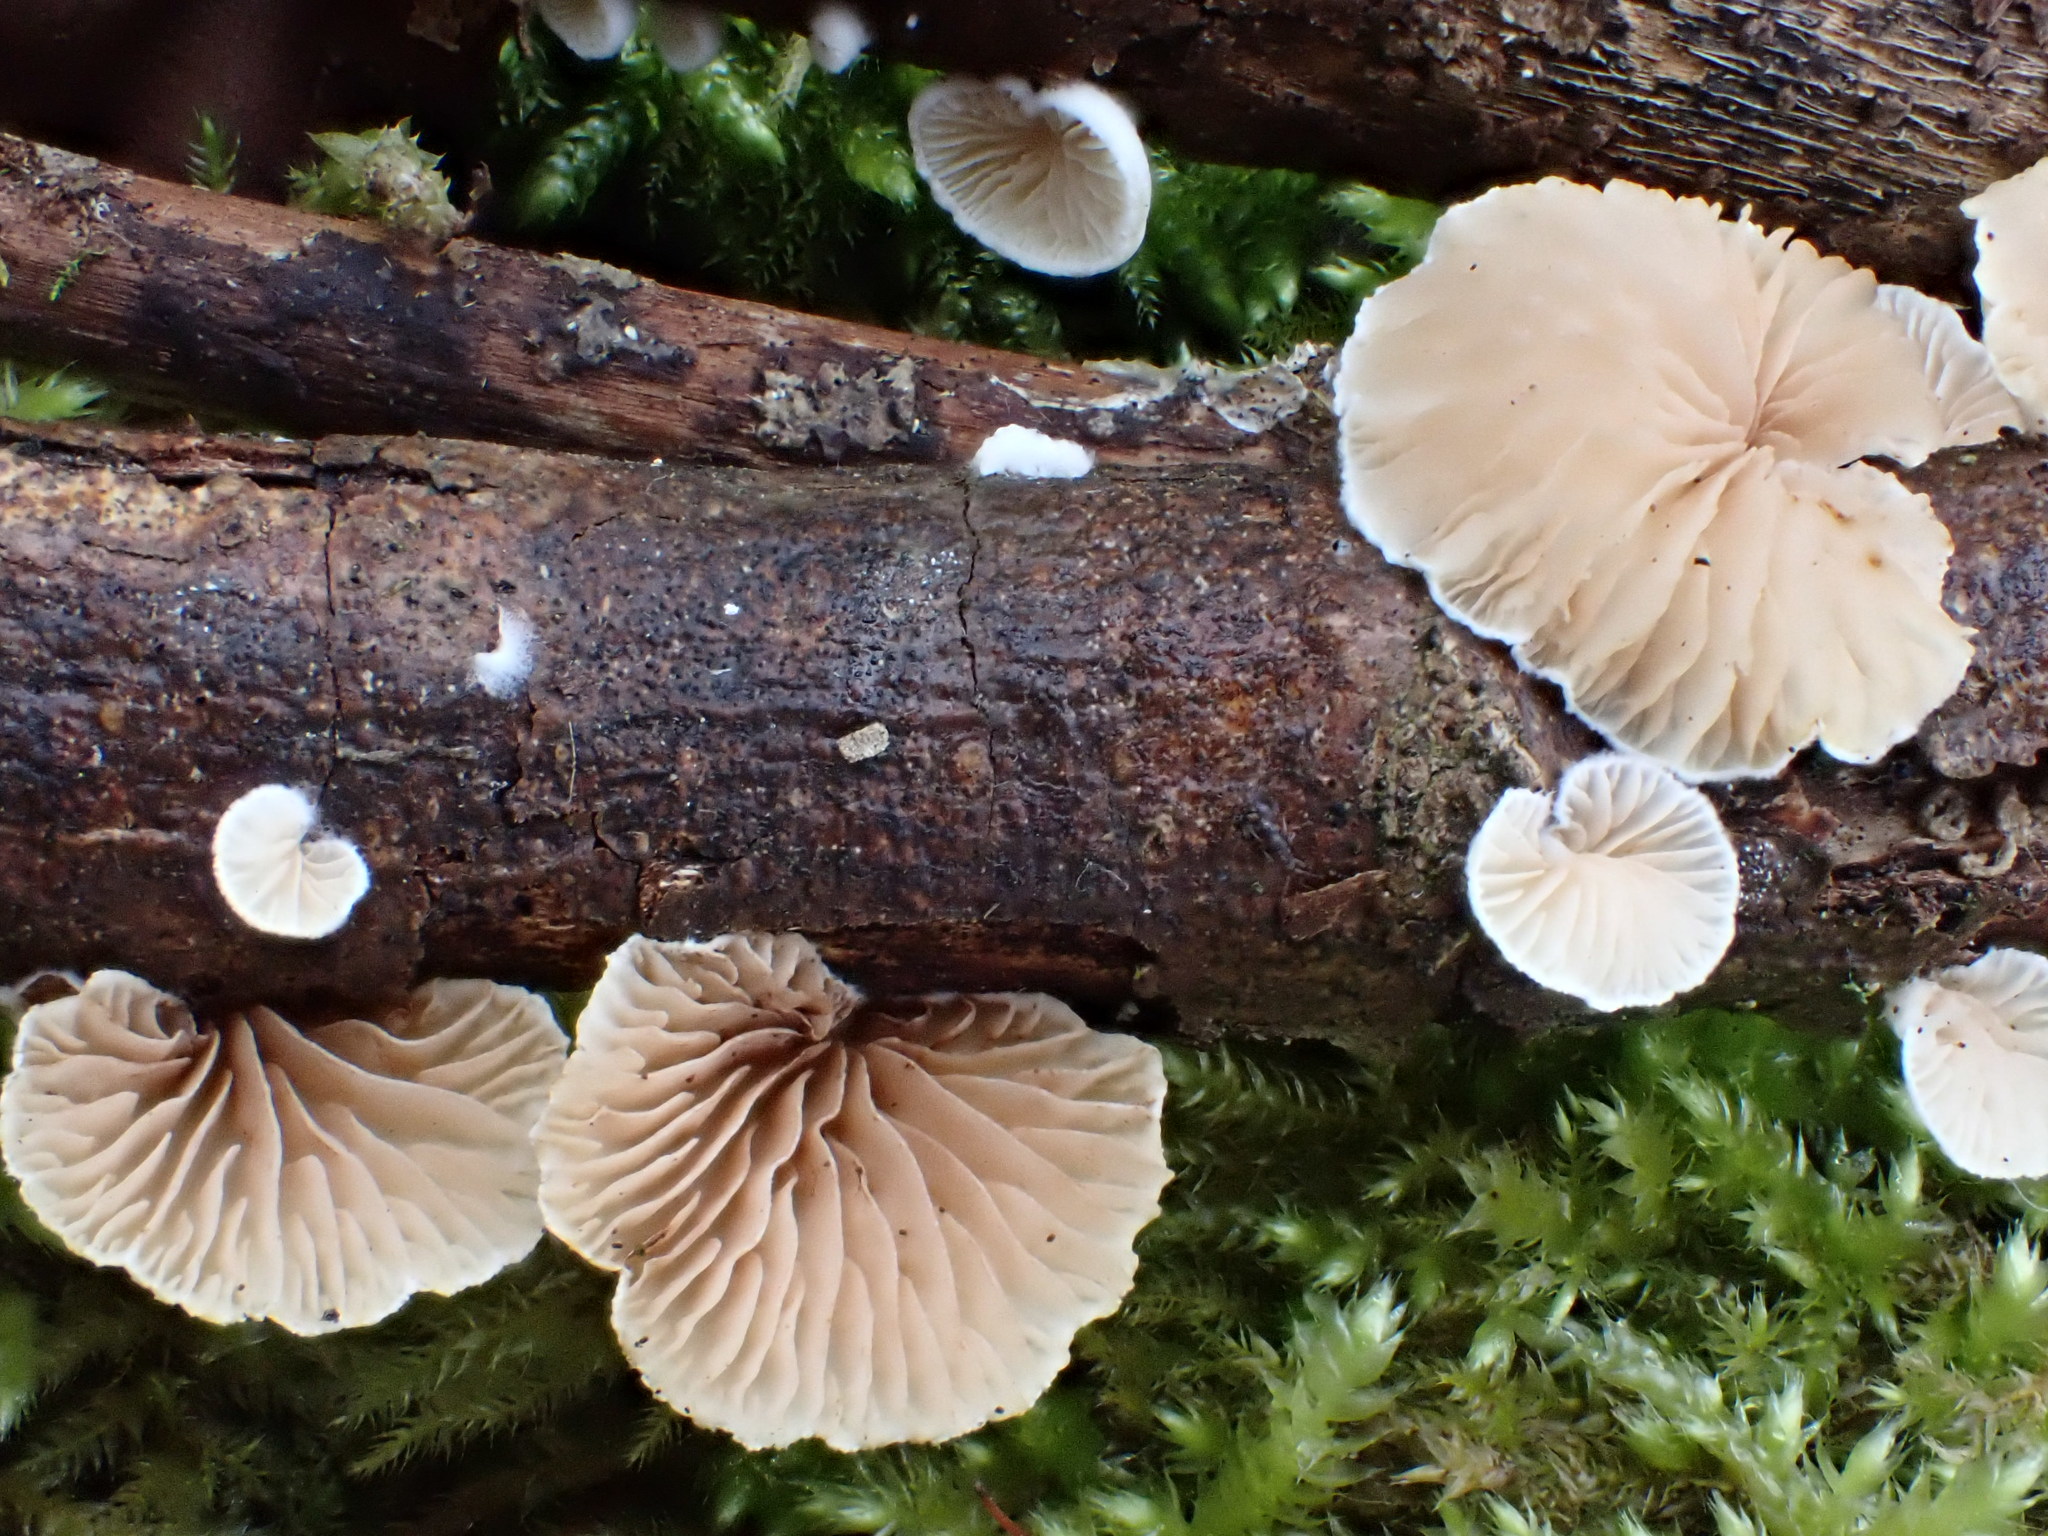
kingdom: Fungi
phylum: Basidiomycota
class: Agaricomycetes
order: Agaricales
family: Crepidotaceae
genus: Crepidotus
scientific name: Crepidotus
